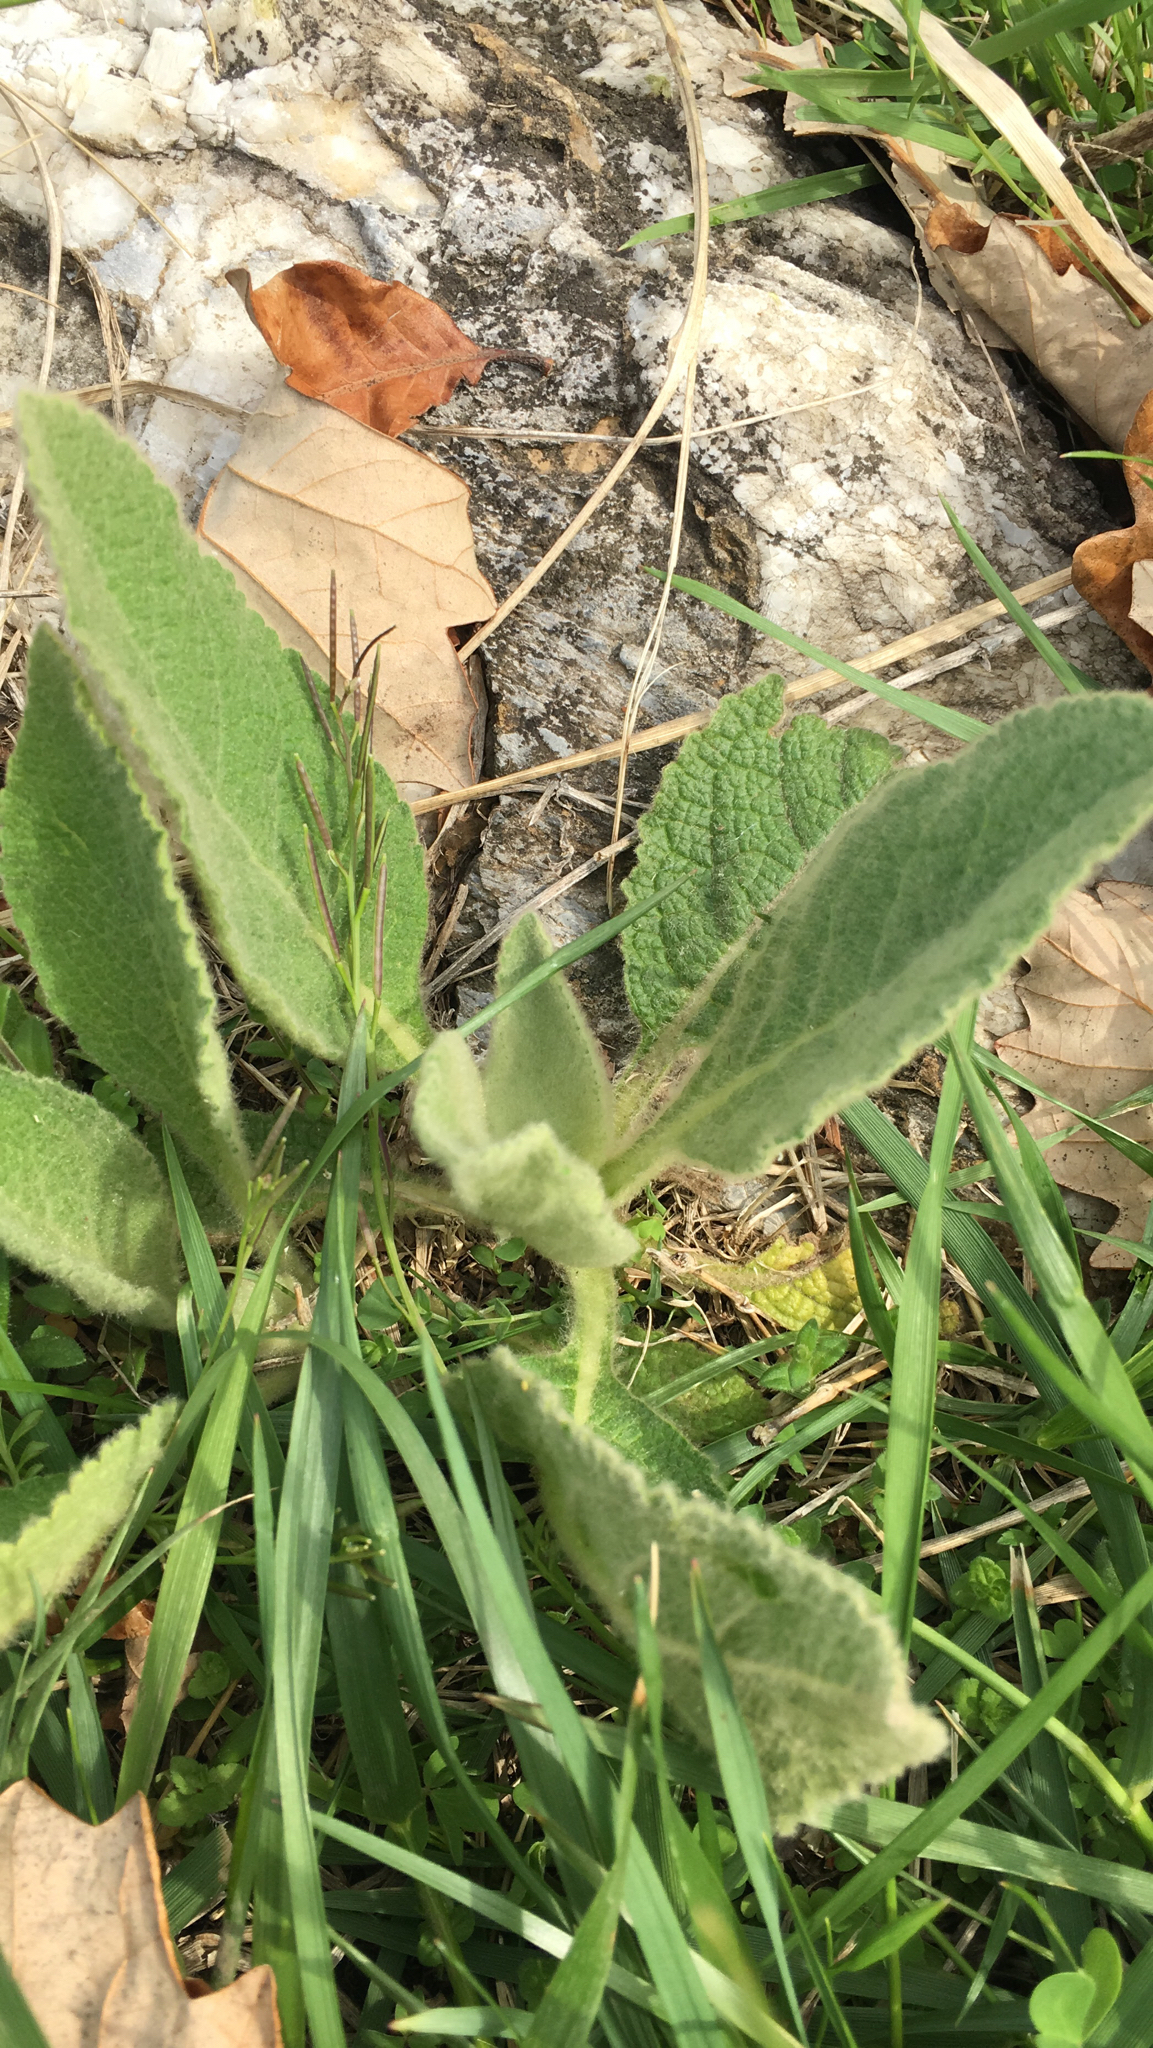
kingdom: Plantae
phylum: Tracheophyta
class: Magnoliopsida
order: Lamiales
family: Scrophulariaceae
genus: Verbascum
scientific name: Verbascum thapsus
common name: Common mullein
